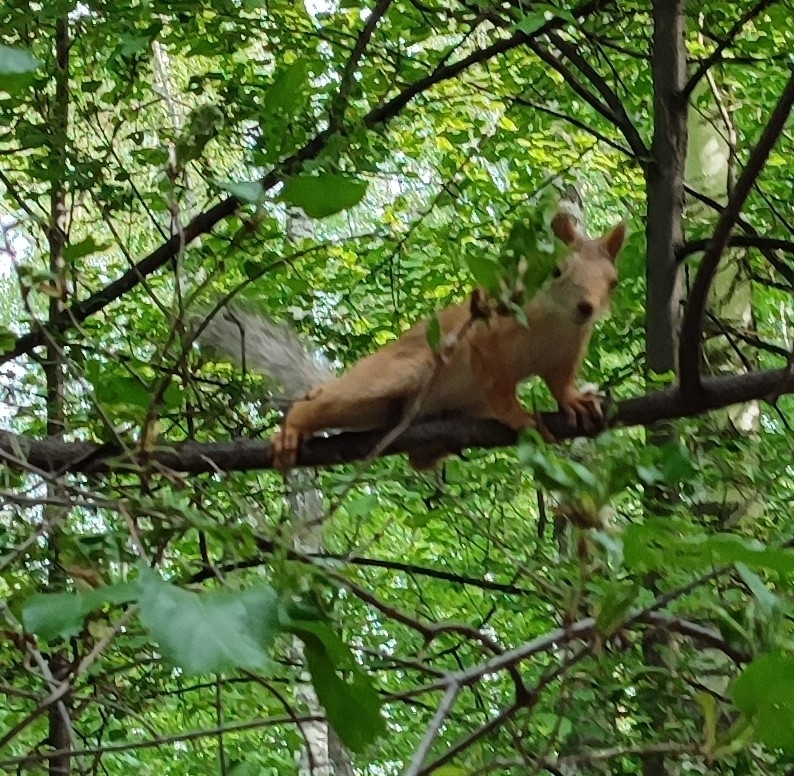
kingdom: Animalia
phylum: Chordata
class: Mammalia
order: Rodentia
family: Sciuridae
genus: Sciurus
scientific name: Sciurus vulgaris
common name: Eurasian red squirrel
